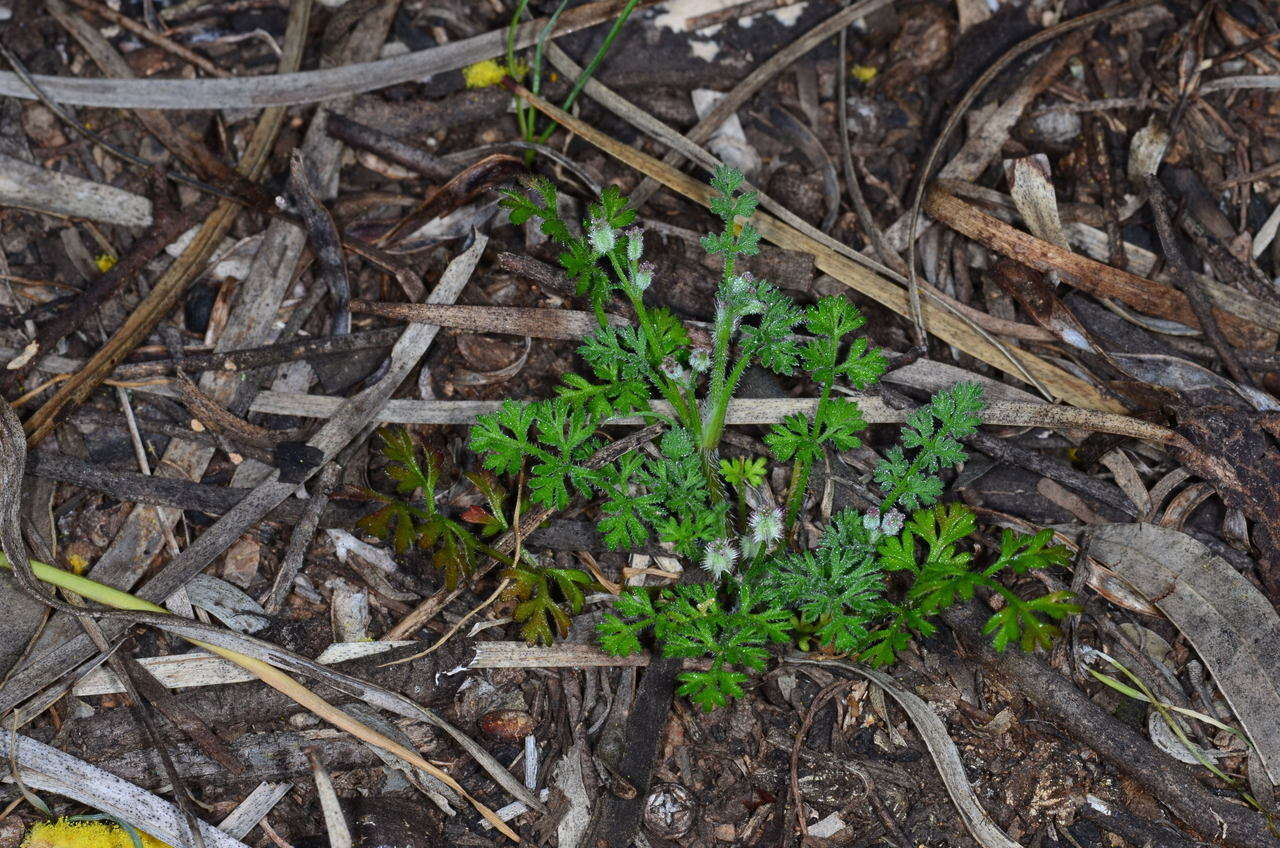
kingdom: Plantae
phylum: Tracheophyta
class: Magnoliopsida
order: Apiales
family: Apiaceae
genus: Daucus
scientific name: Daucus glochidiatus
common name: Australian carrot
